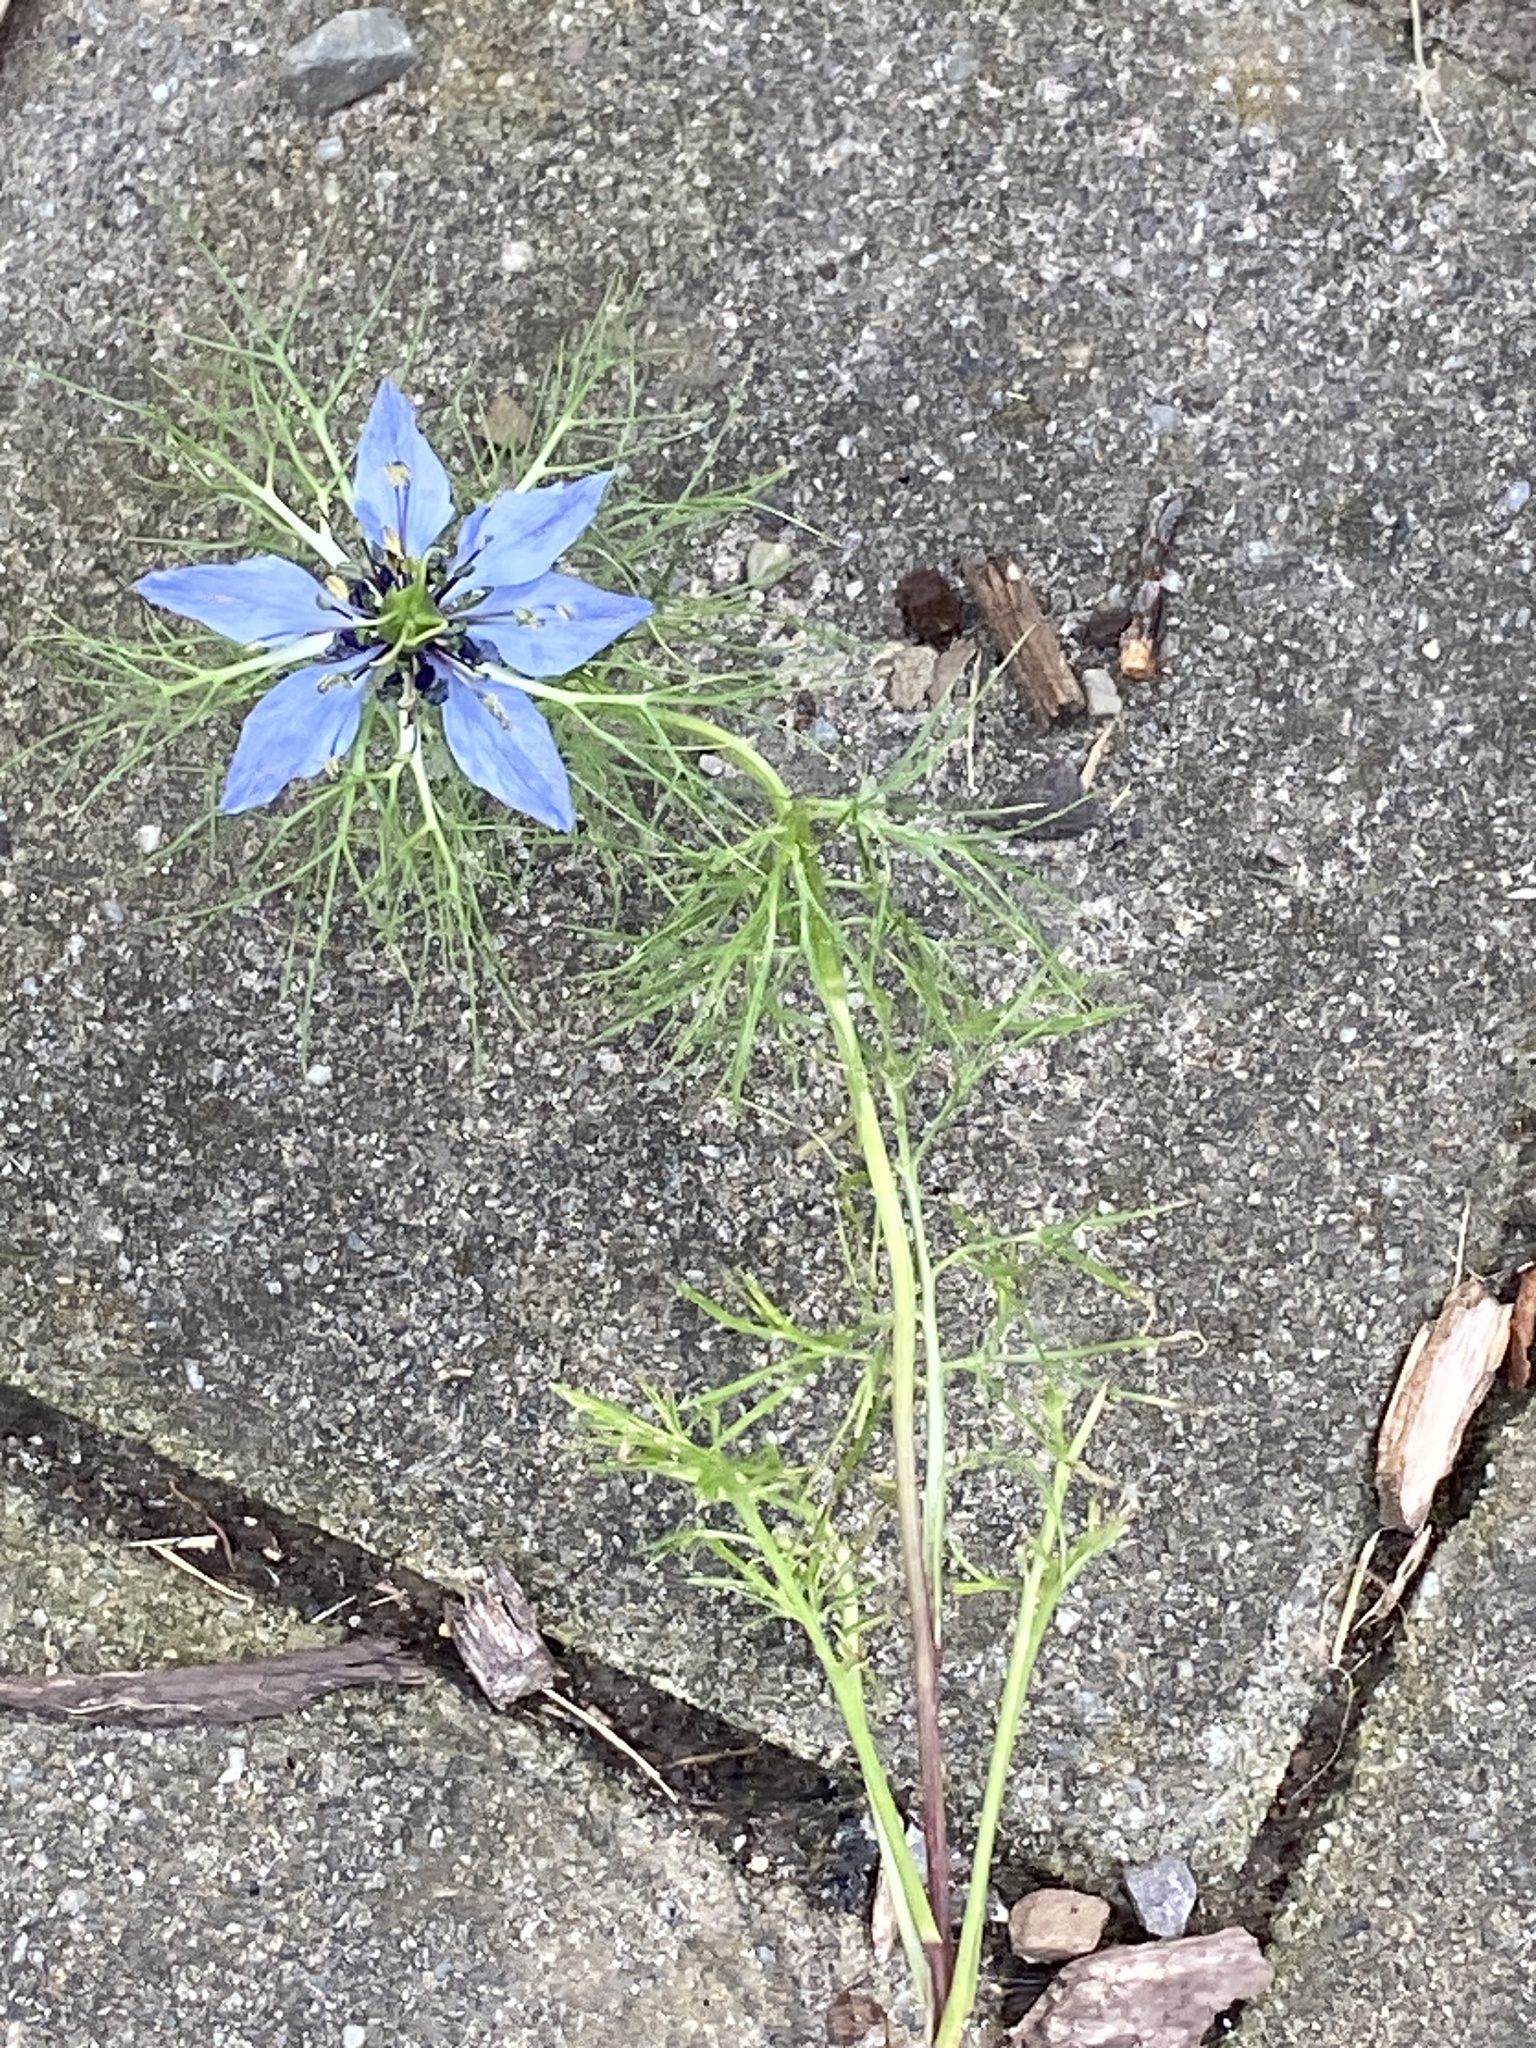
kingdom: Plantae
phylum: Tracheophyta
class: Magnoliopsida
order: Ranunculales
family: Ranunculaceae
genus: Nigella
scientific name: Nigella damascena
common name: Love-in-a-mist
